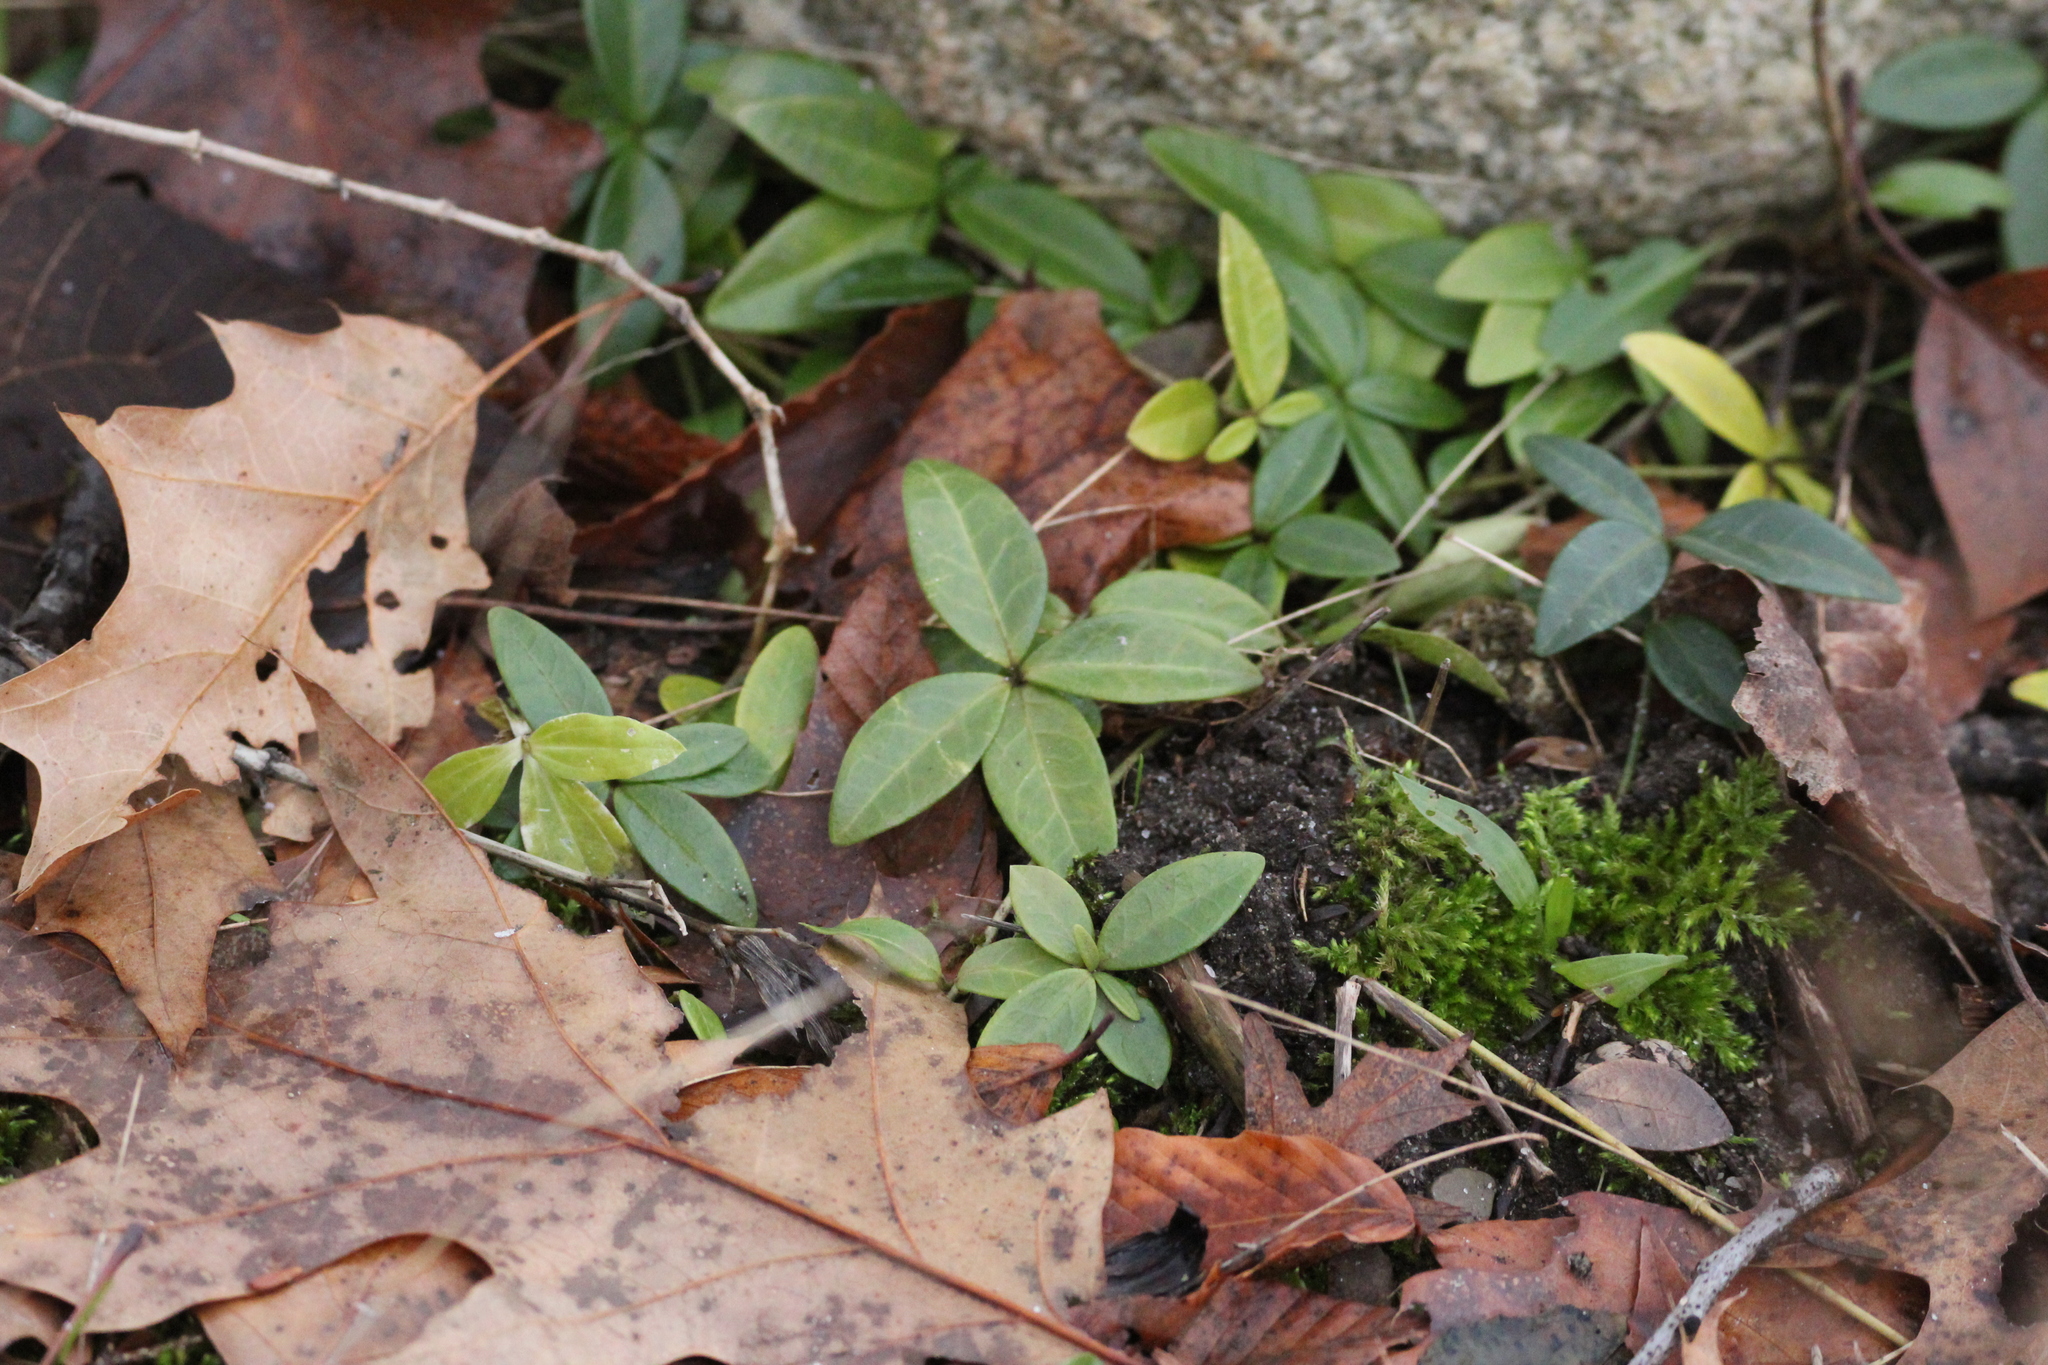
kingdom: Plantae
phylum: Tracheophyta
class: Magnoliopsida
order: Gentianales
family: Apocynaceae
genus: Vinca
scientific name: Vinca minor
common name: Lesser periwinkle
